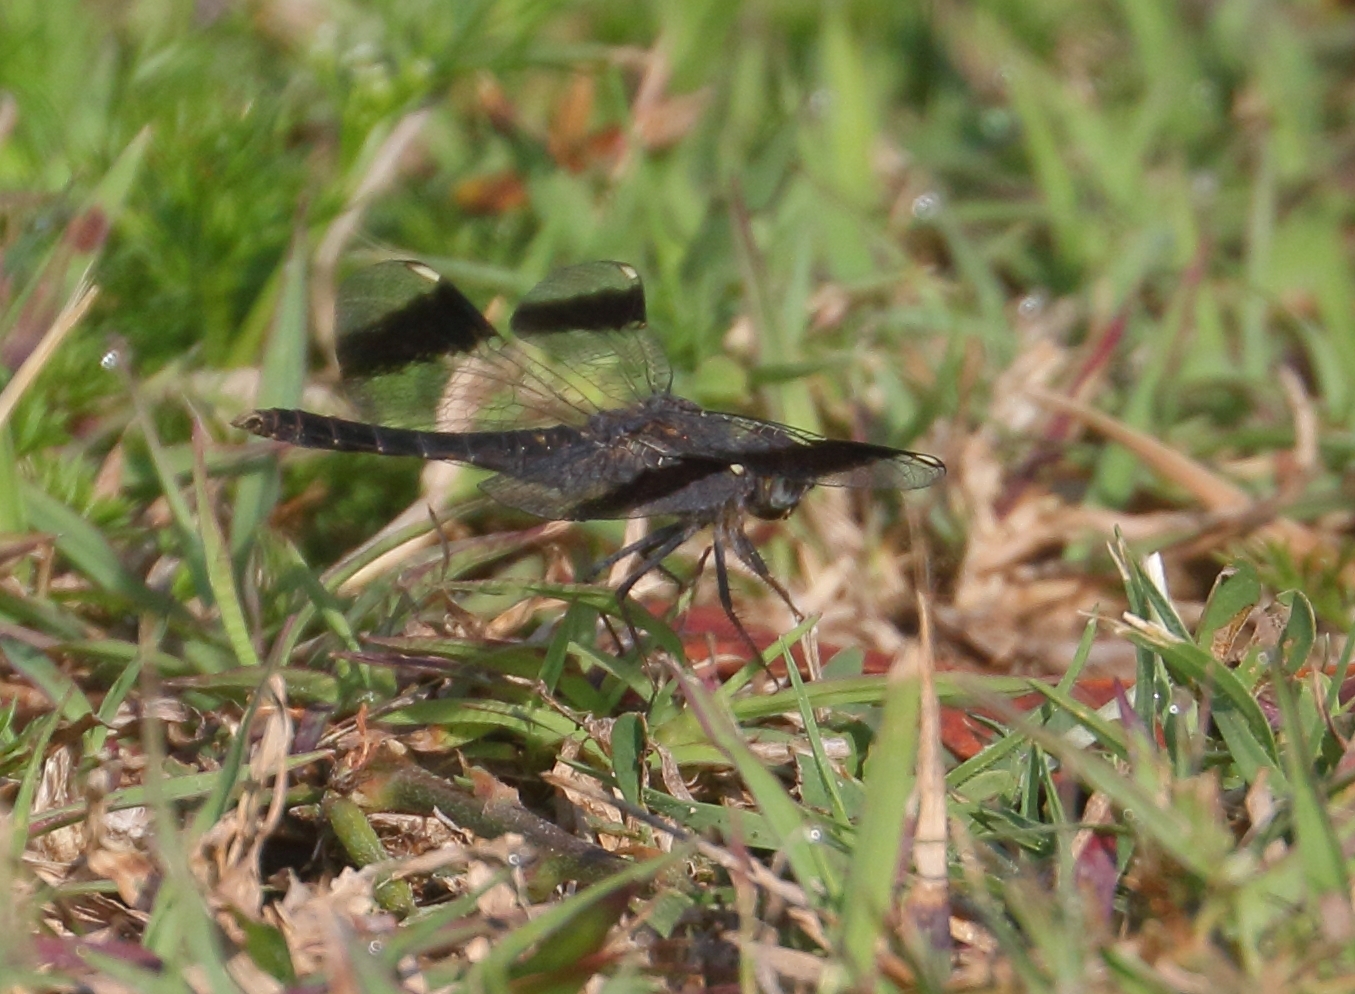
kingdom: Animalia
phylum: Arthropoda
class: Insecta
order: Odonata
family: Libellulidae
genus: Brachythemis
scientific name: Brachythemis leucosticta
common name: Banded groundling
